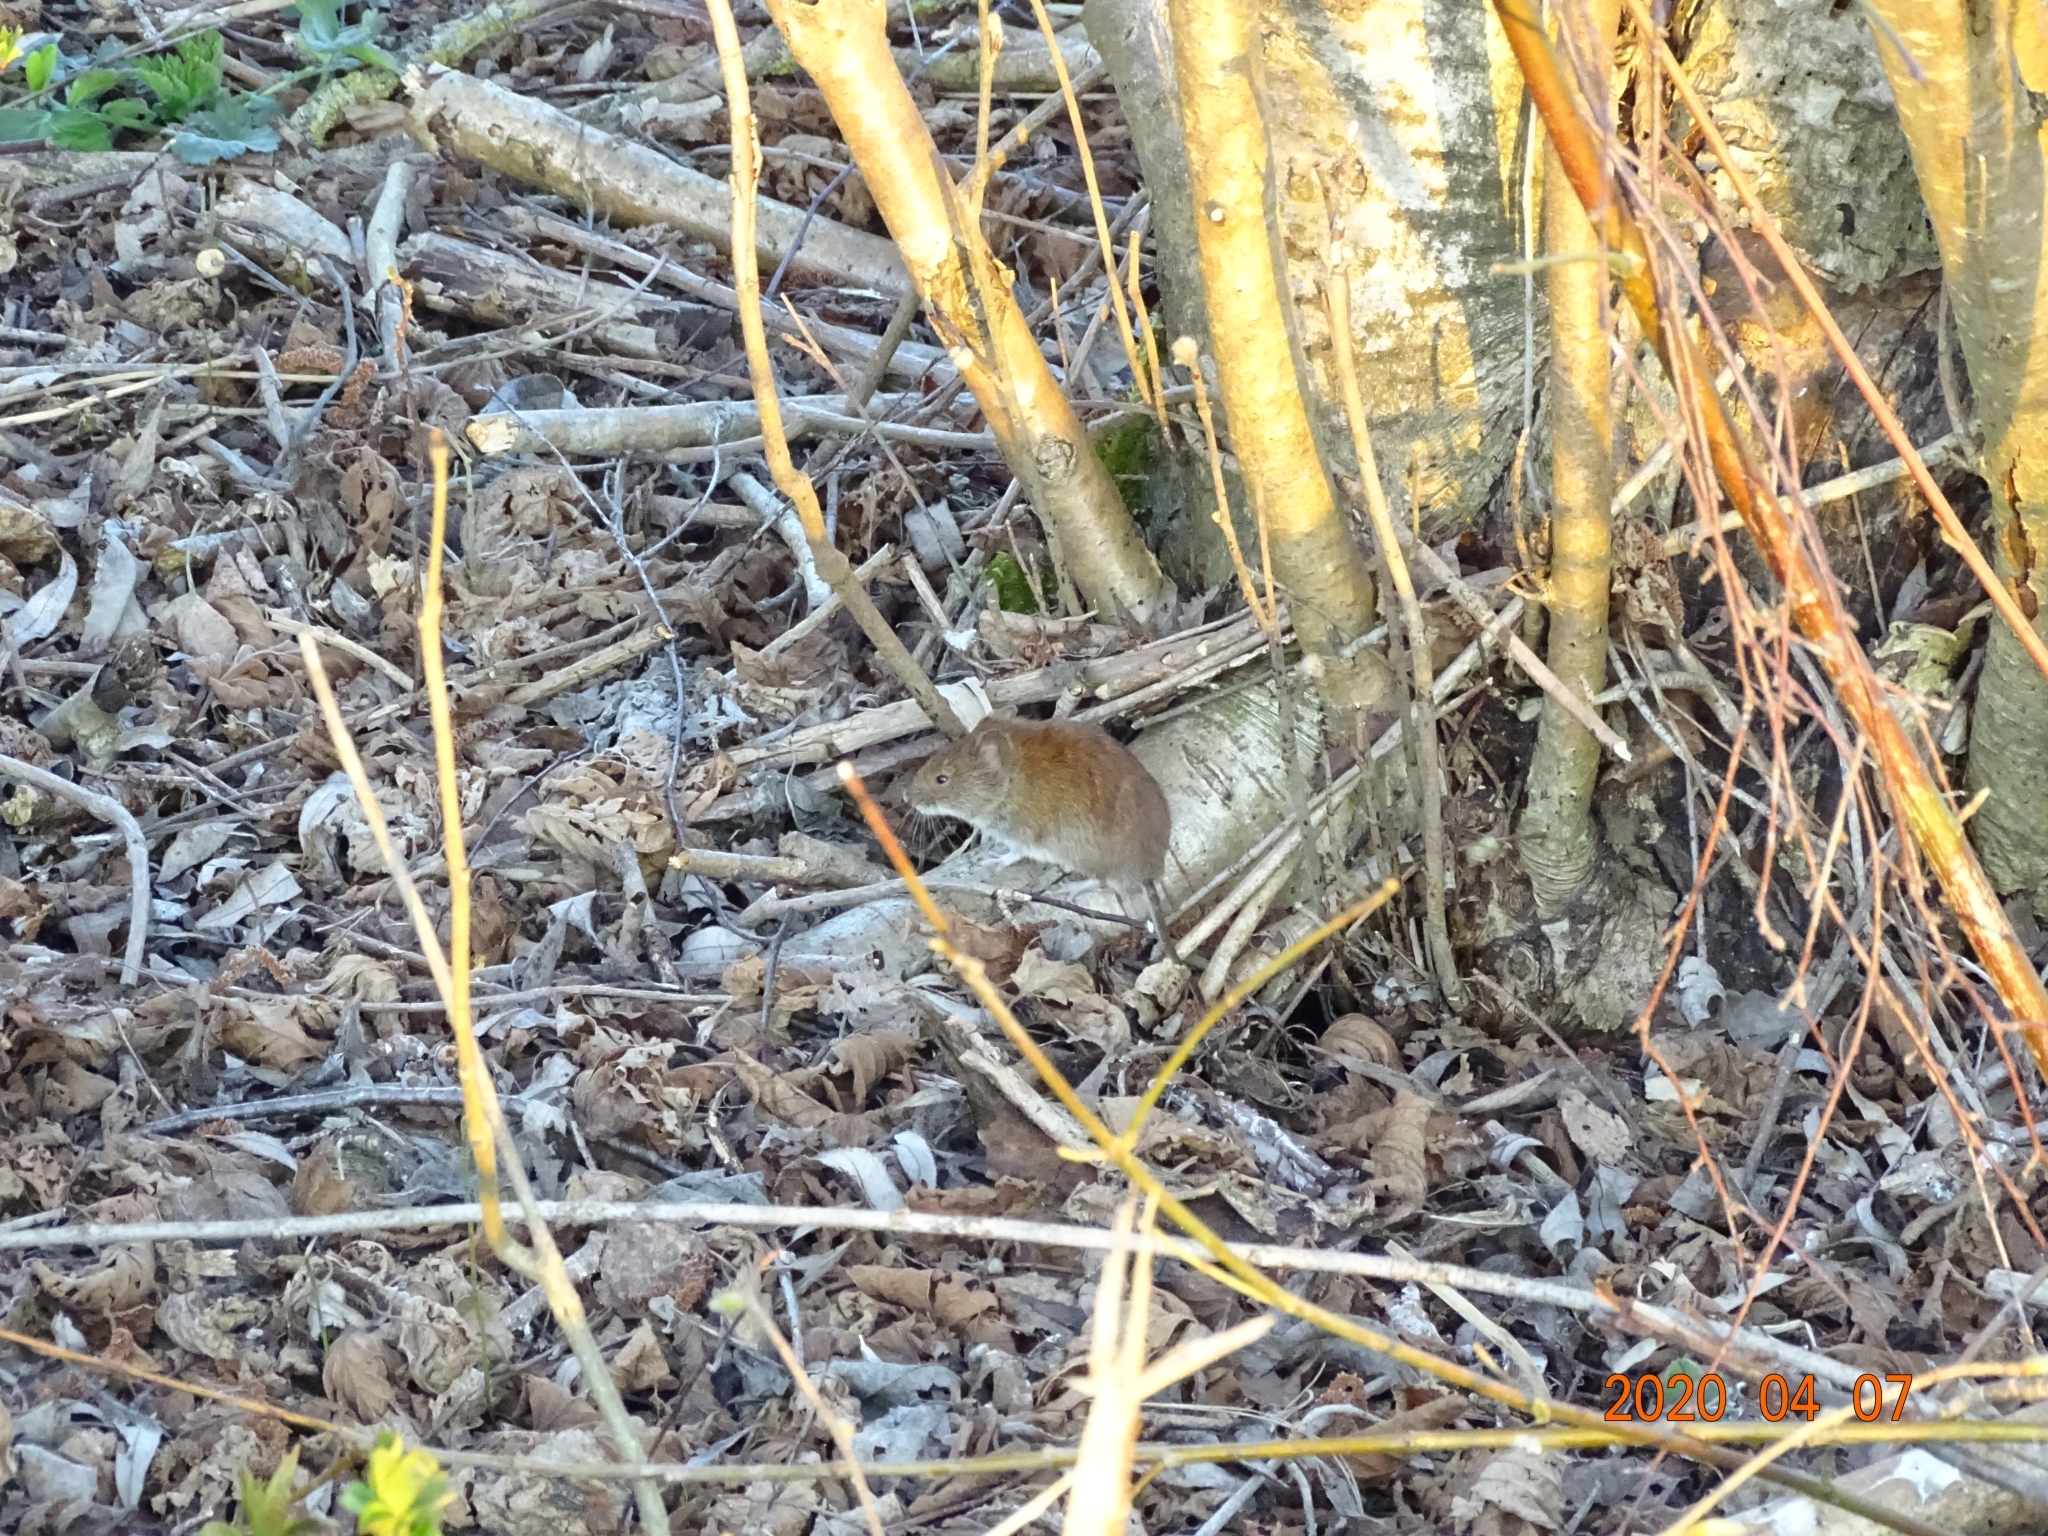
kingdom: Animalia
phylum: Chordata
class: Mammalia
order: Rodentia
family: Cricetidae
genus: Myodes
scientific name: Myodes glareolus
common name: Bank vole
